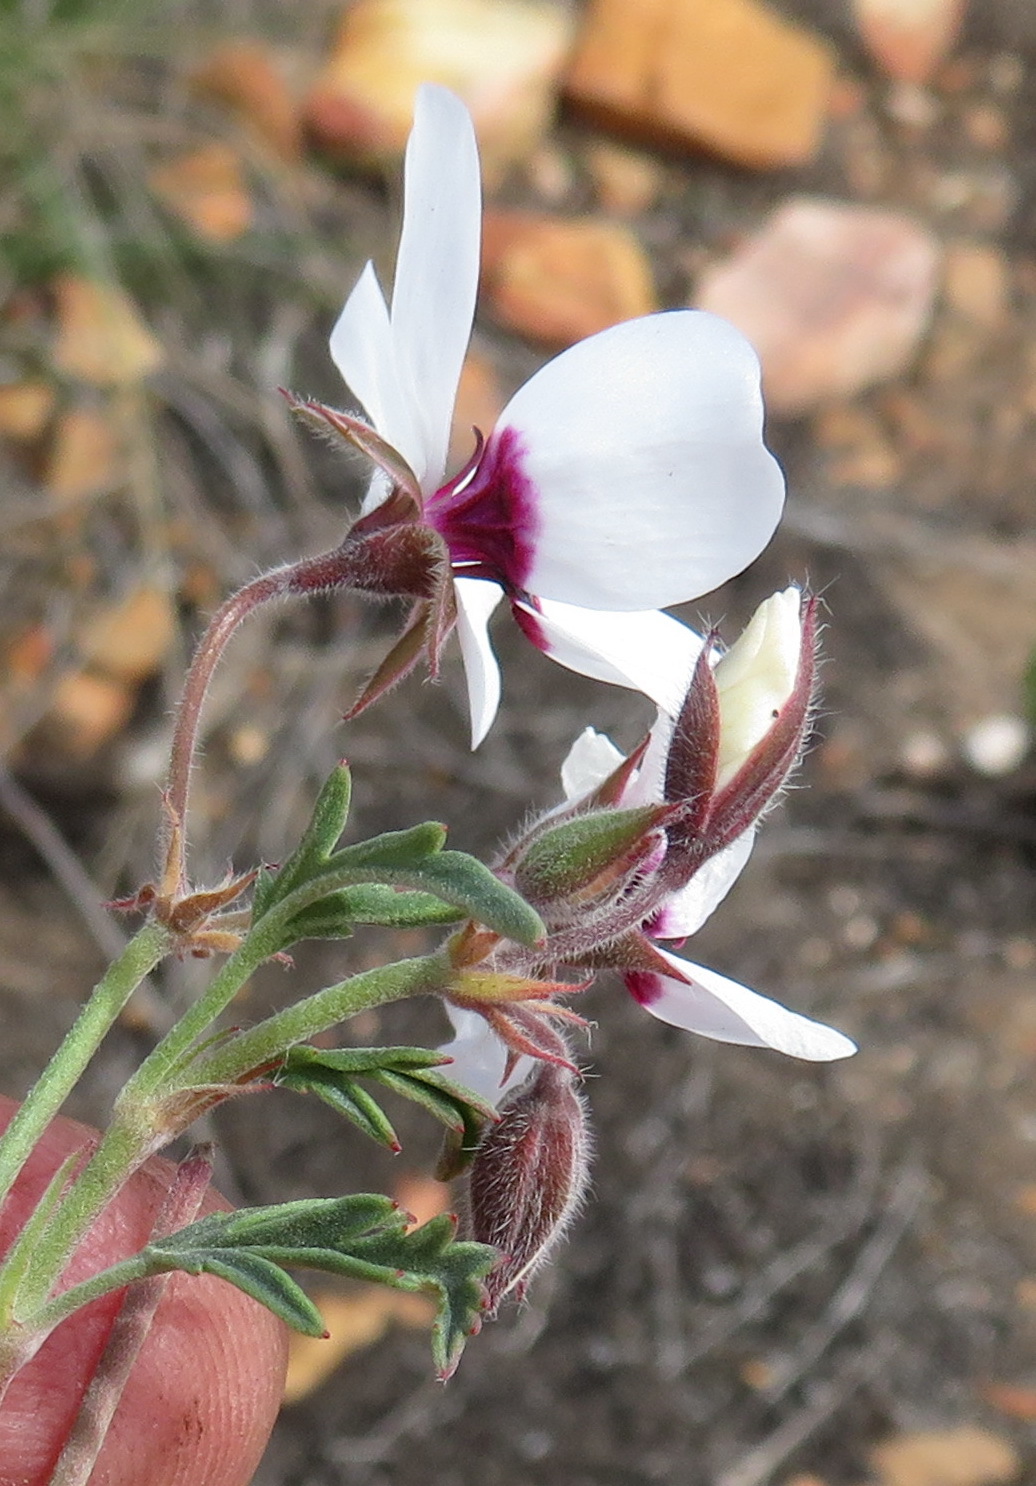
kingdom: Plantae
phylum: Tracheophyta
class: Magnoliopsida
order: Geraniales
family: Geraniaceae
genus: Pelargonium
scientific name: Pelargonium tricolor
